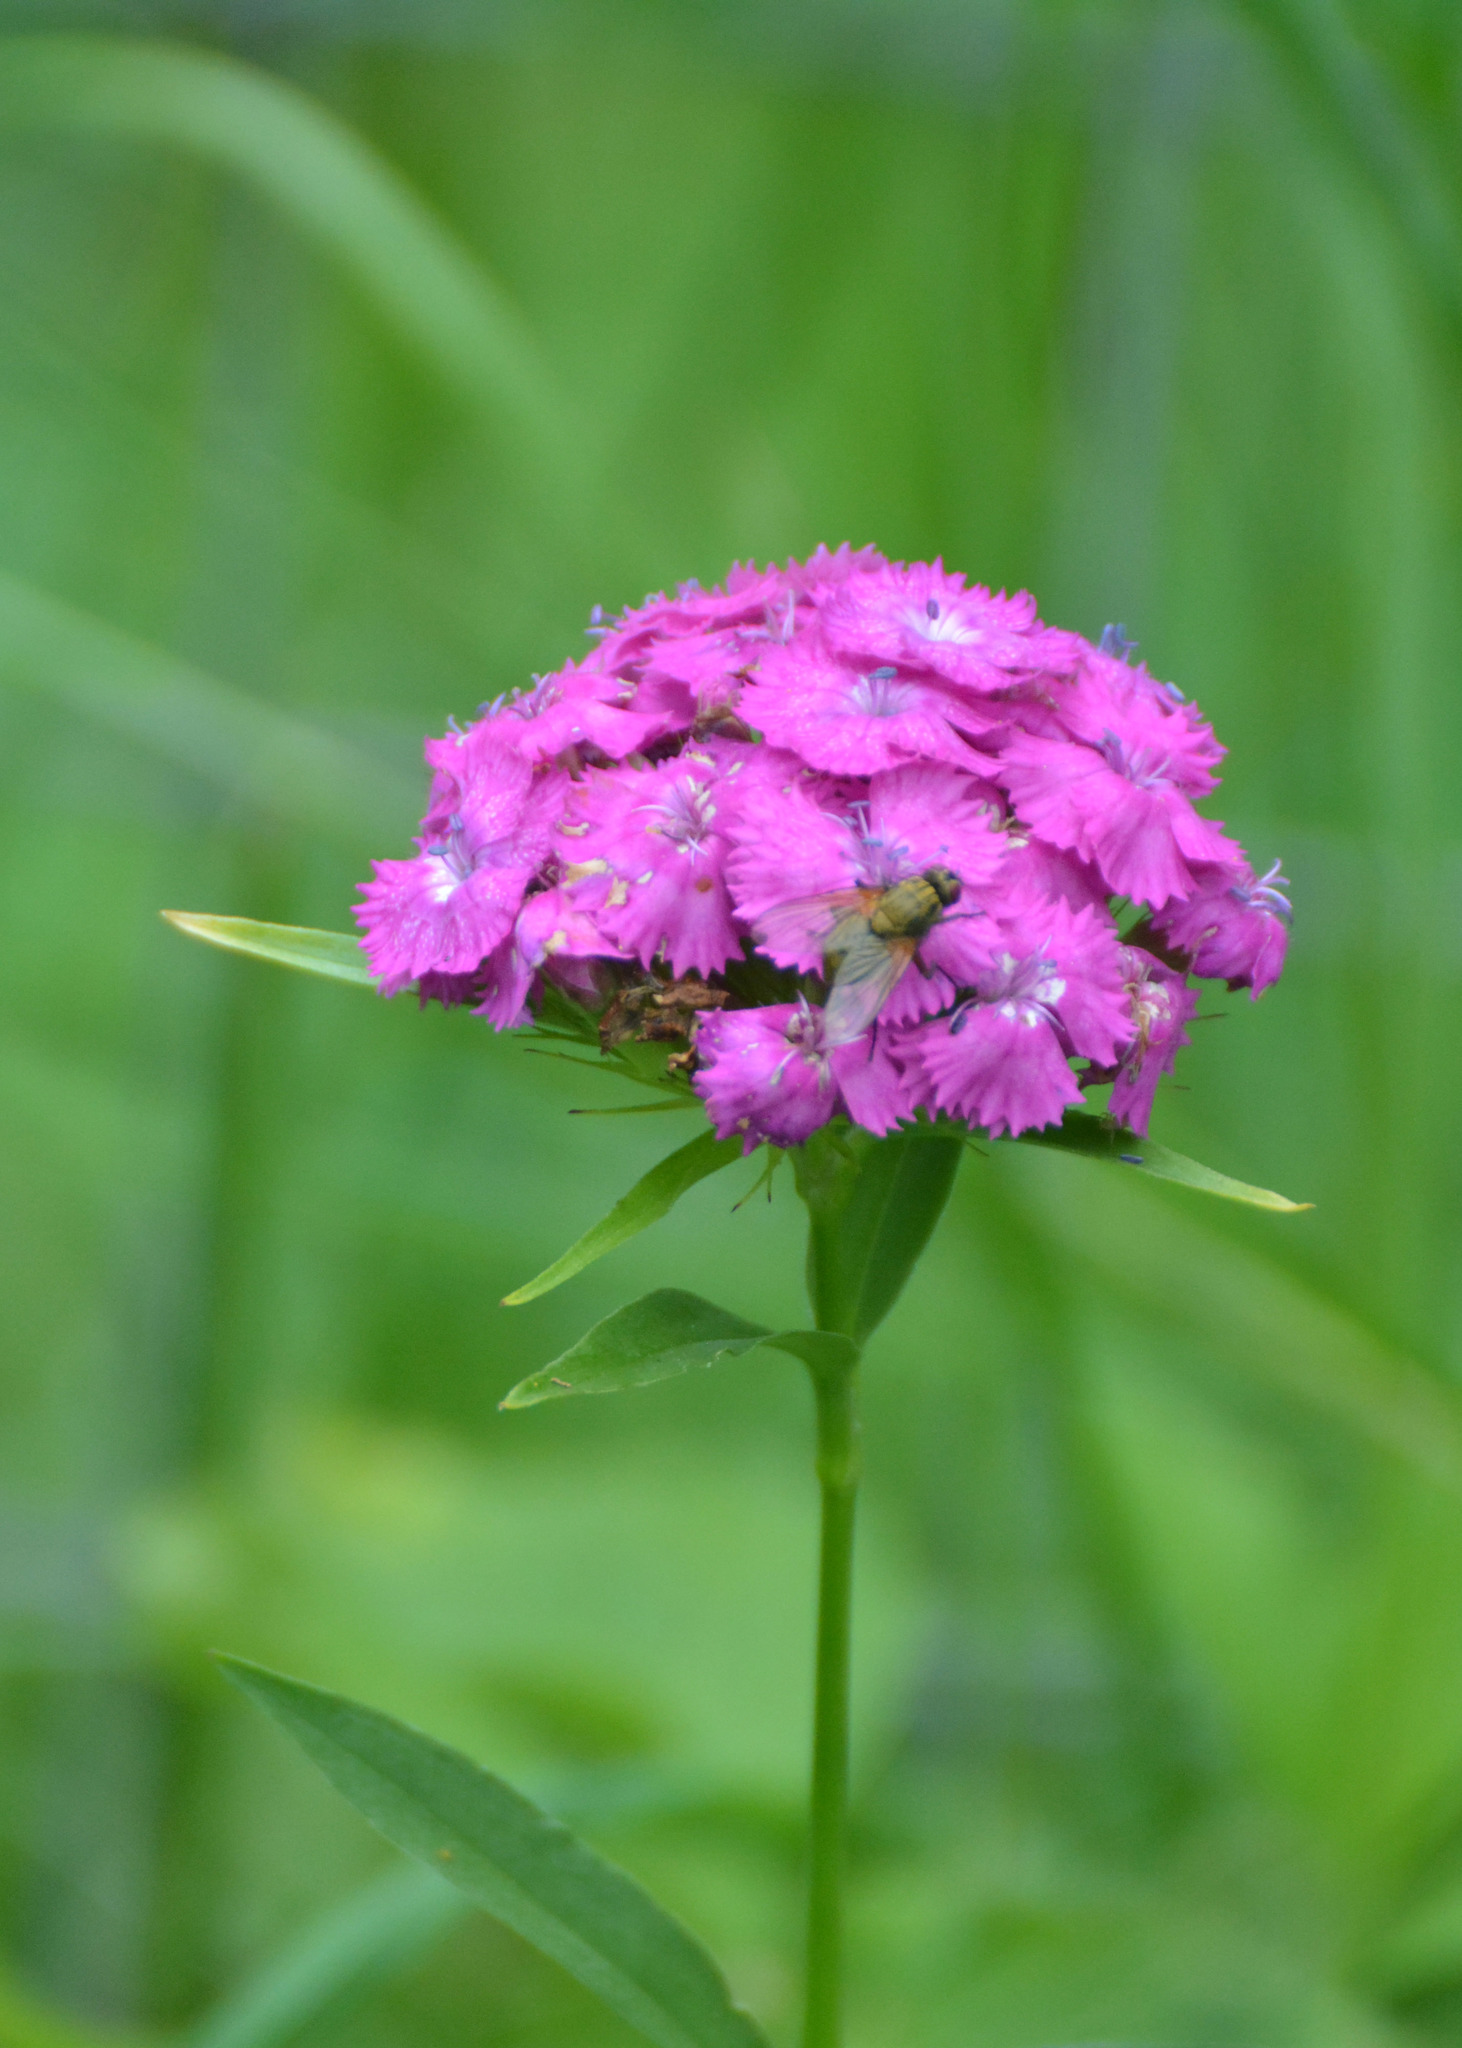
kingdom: Plantae
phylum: Tracheophyta
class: Magnoliopsida
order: Caryophyllales
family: Caryophyllaceae
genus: Dianthus
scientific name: Dianthus barbatus
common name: Sweet-william
